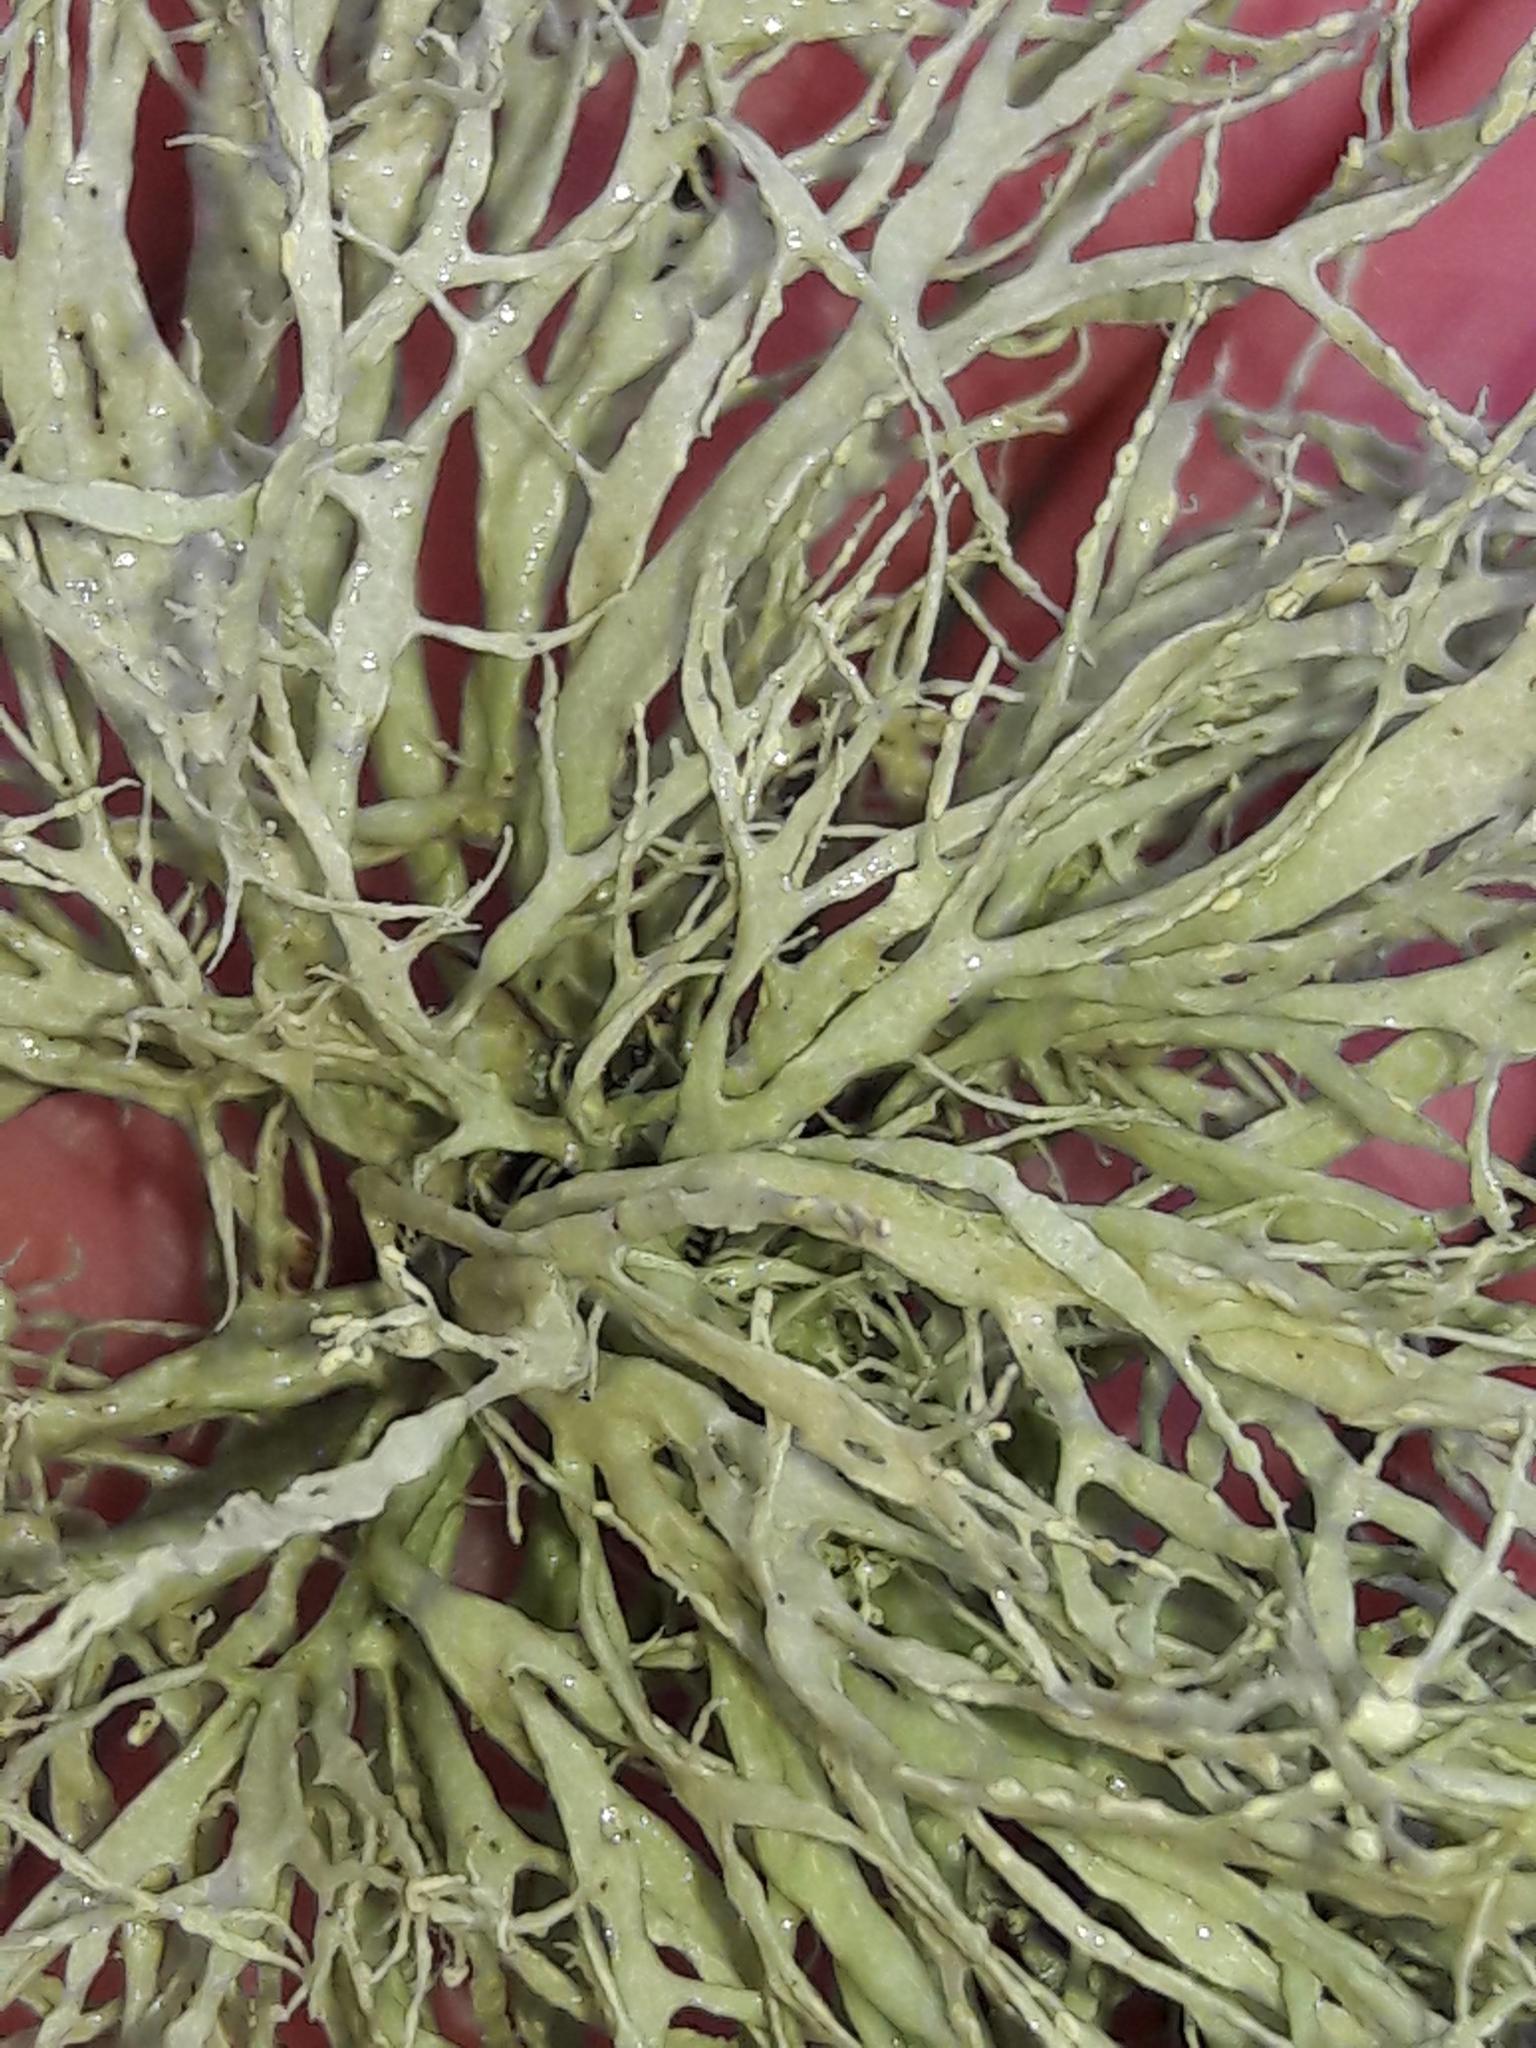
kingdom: Fungi
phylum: Ascomycota
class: Lecanoromycetes
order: Lecanorales
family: Ramalinaceae
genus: Ramalina
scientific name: Ramalina farinacea
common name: Farinose cartilage lichen
